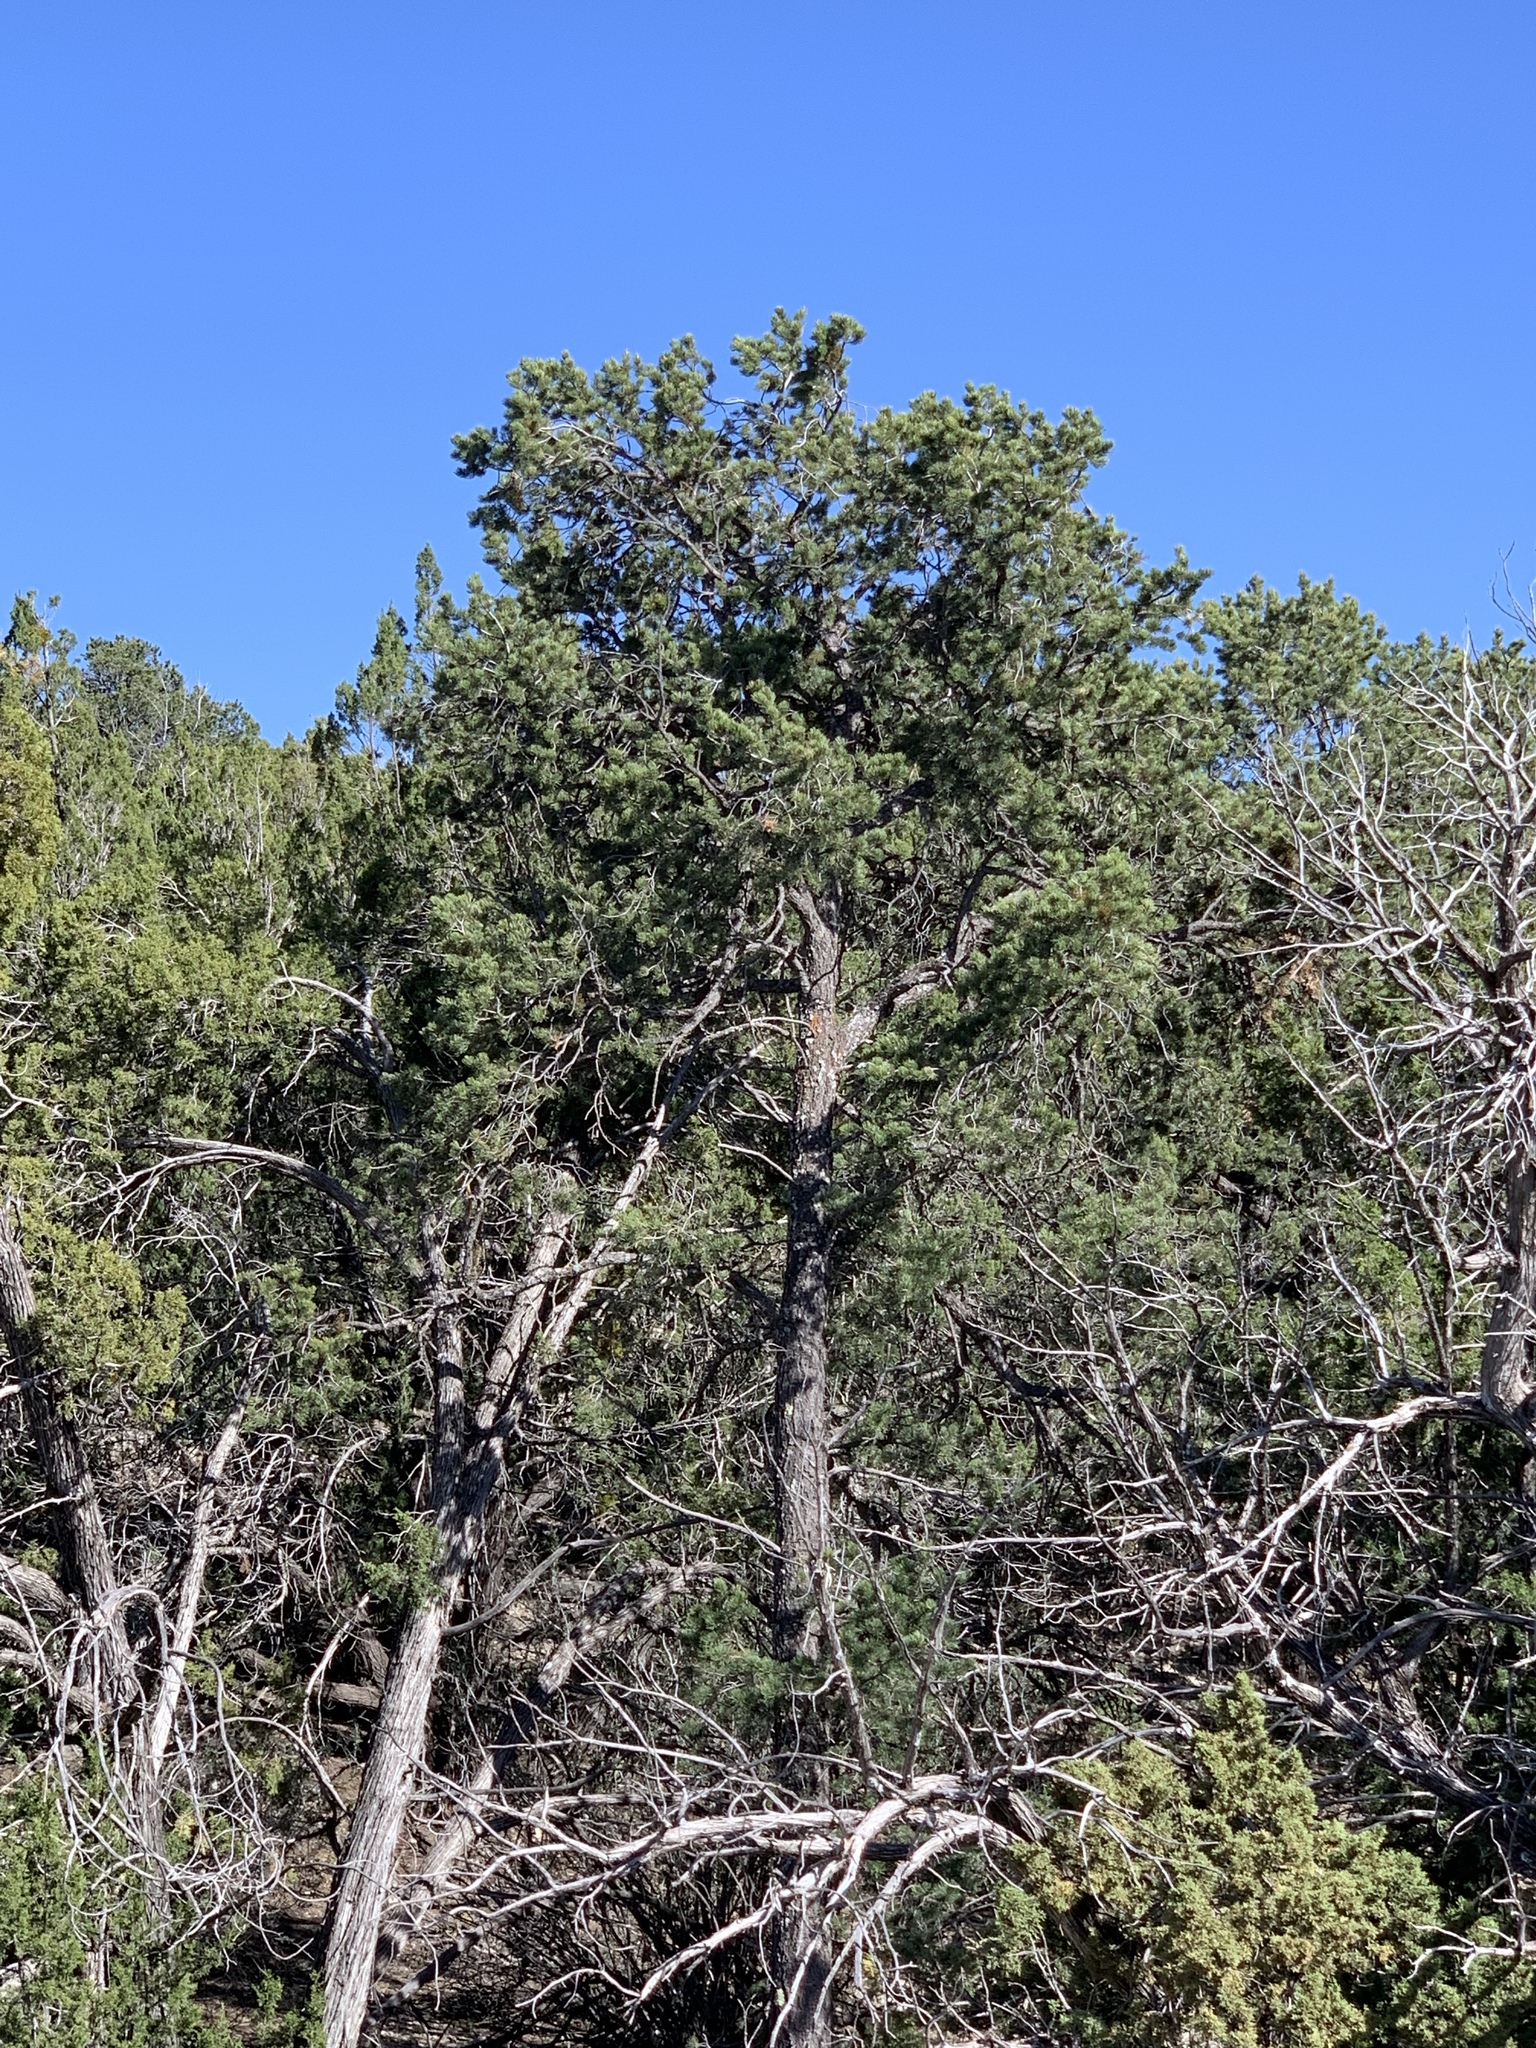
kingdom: Plantae
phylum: Tracheophyta
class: Pinopsida
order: Pinales
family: Pinaceae
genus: Pinus
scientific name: Pinus edulis
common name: Colorado pinyon
